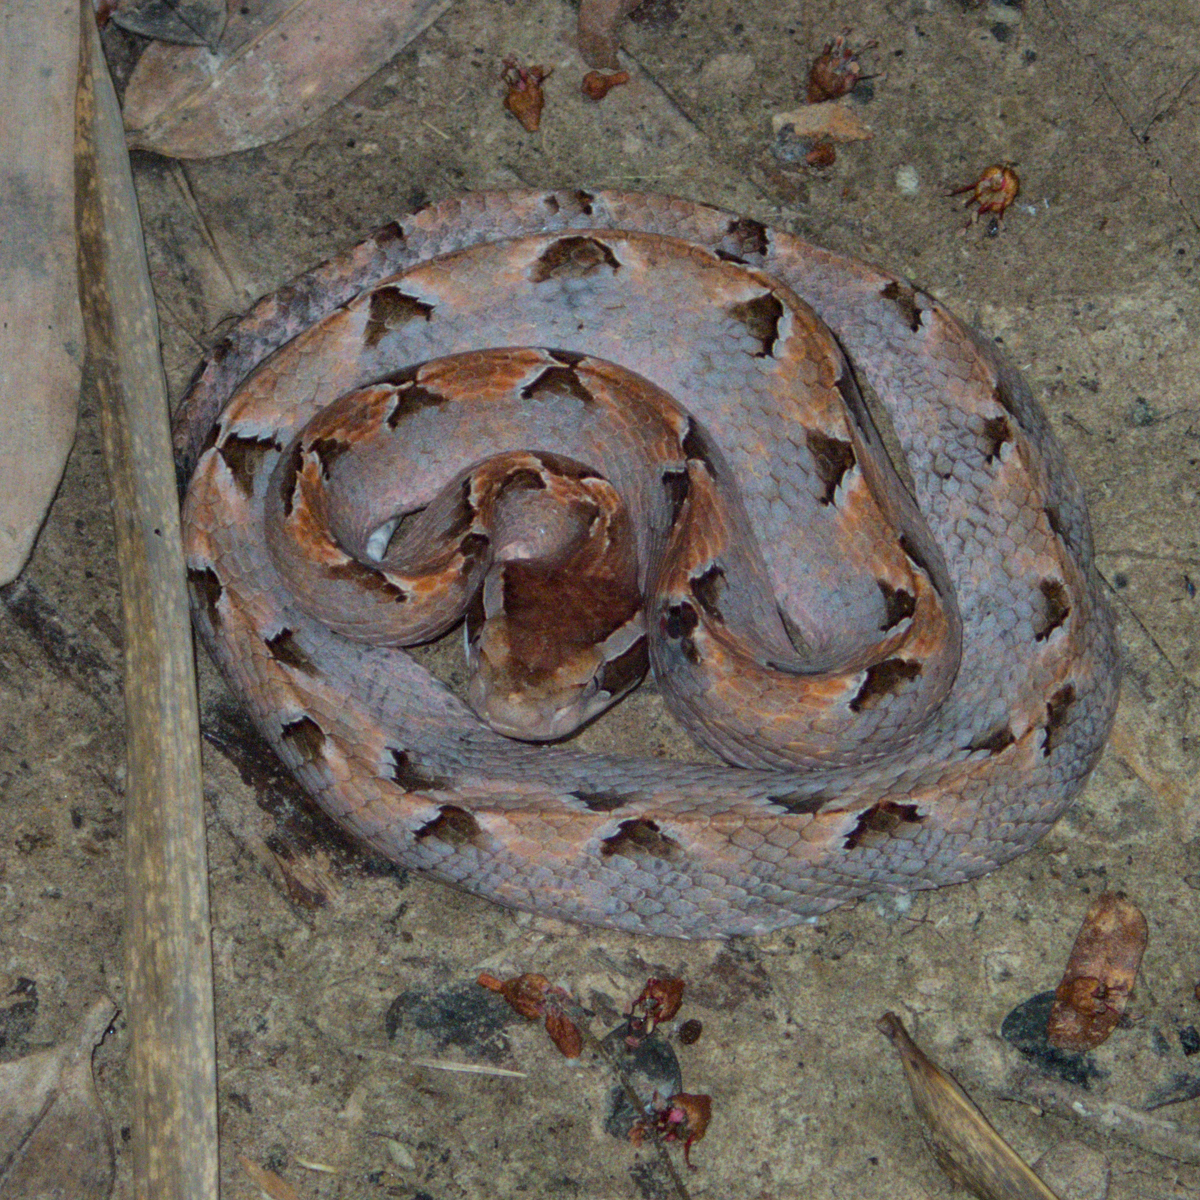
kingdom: Animalia
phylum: Chordata
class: Squamata
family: Viperidae
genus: Calloselasma
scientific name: Calloselasma rhodostoma
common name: Malayan pit viper
